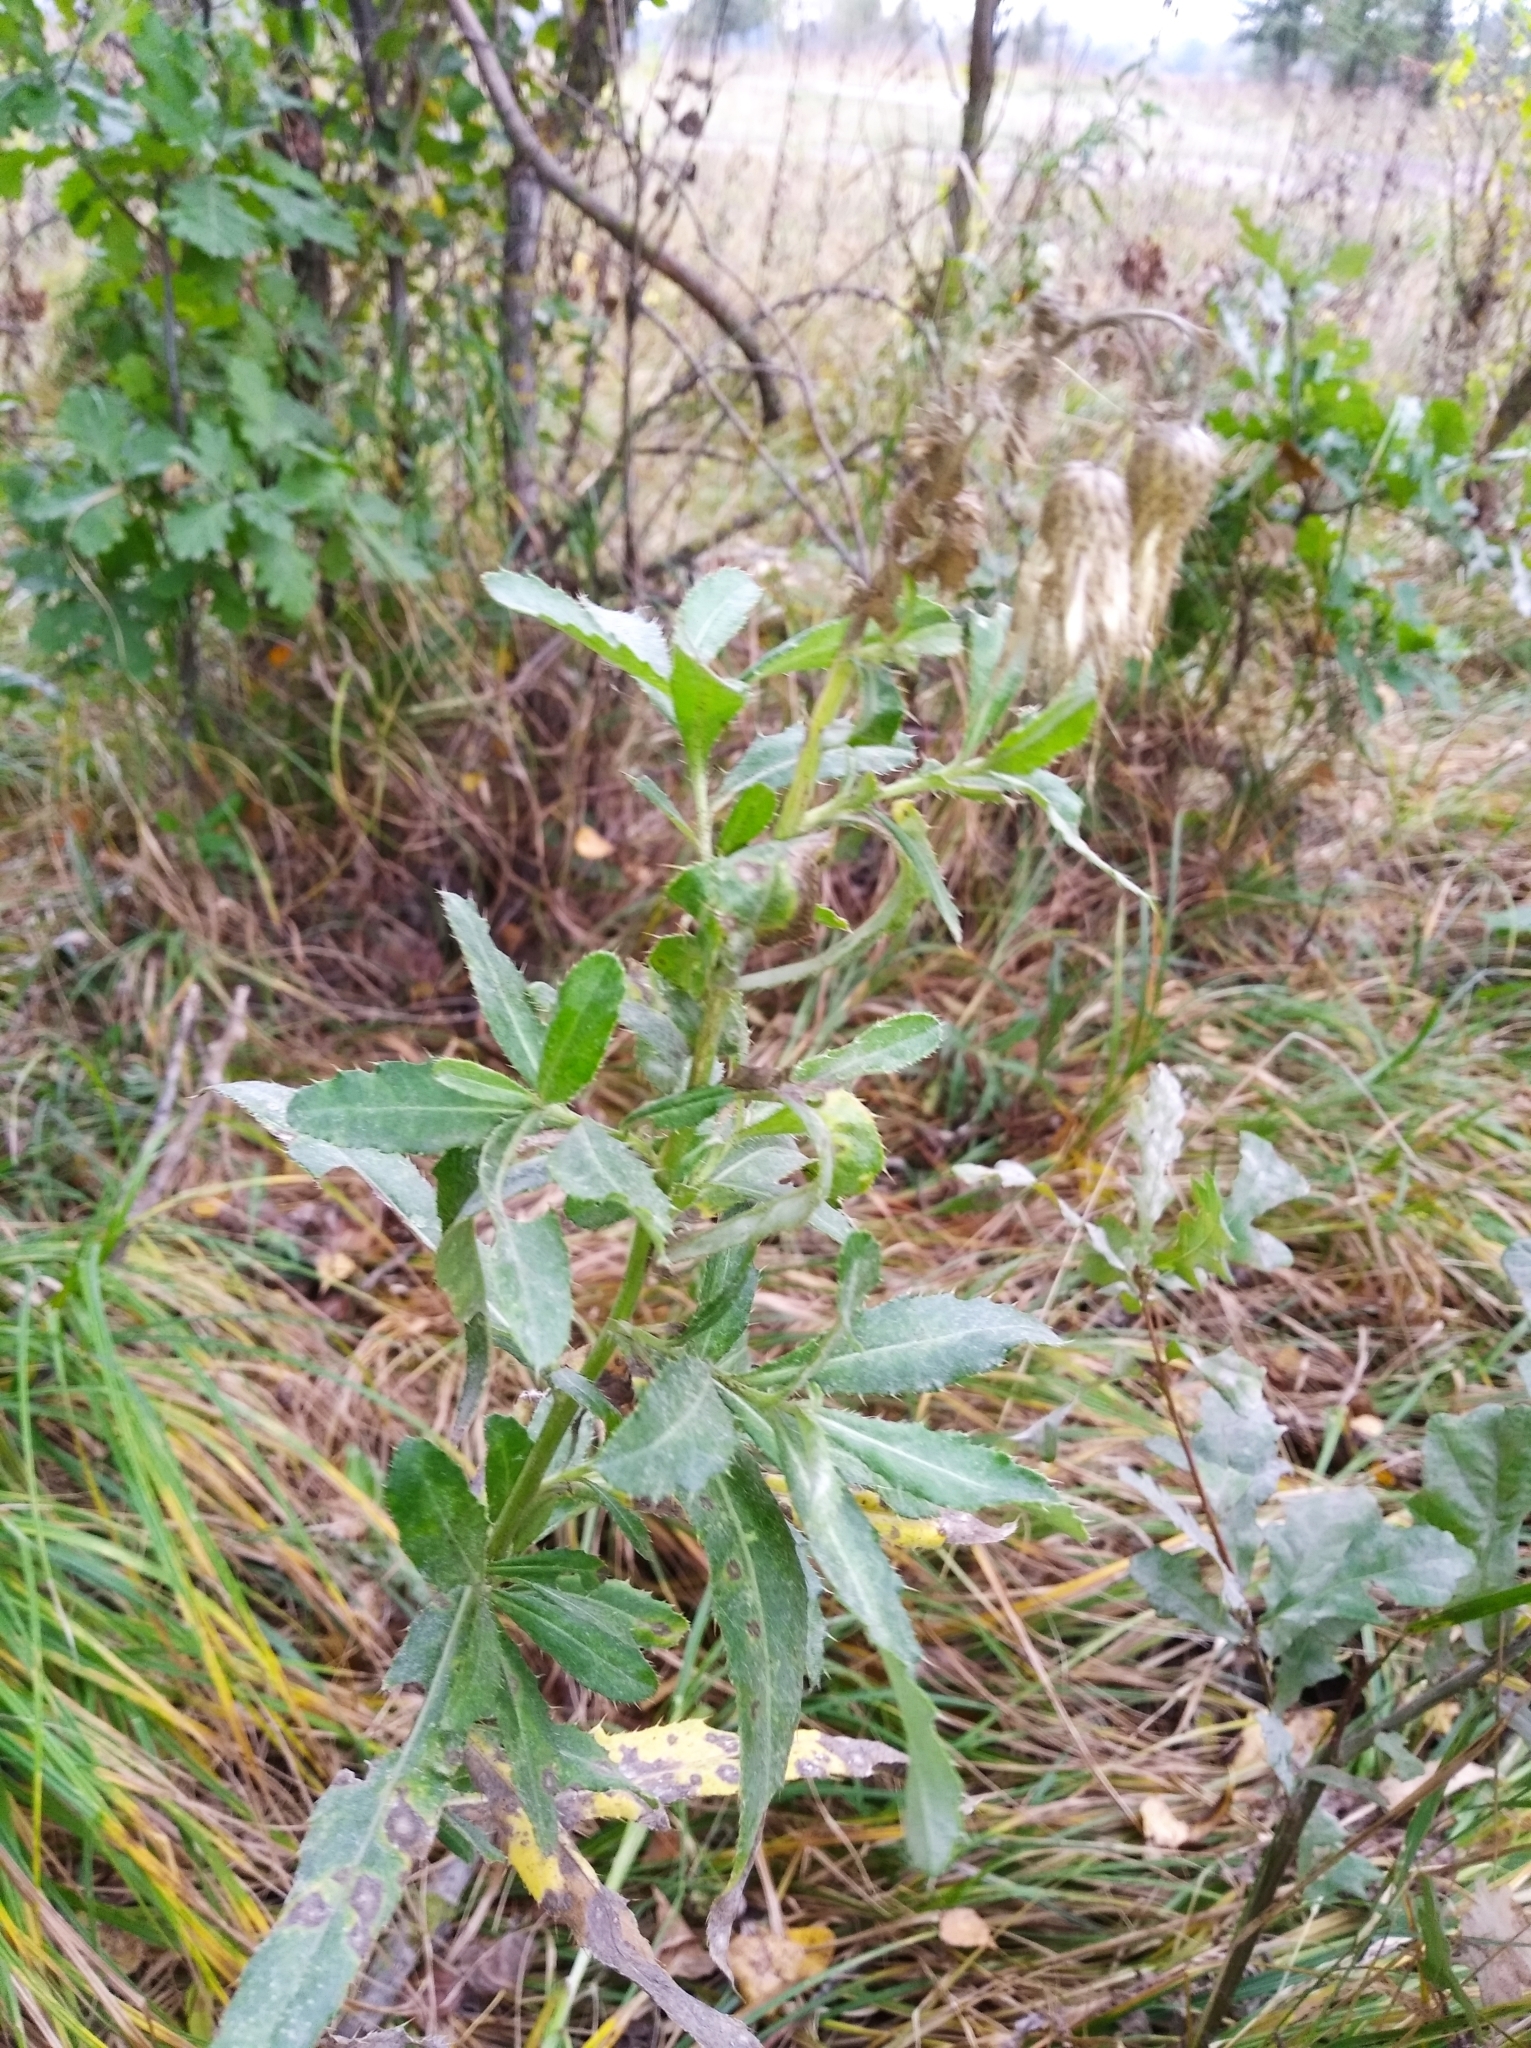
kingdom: Plantae
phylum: Tracheophyta
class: Magnoliopsida
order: Asterales
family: Asteraceae
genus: Cirsium
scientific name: Cirsium arvense
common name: Creeping thistle
